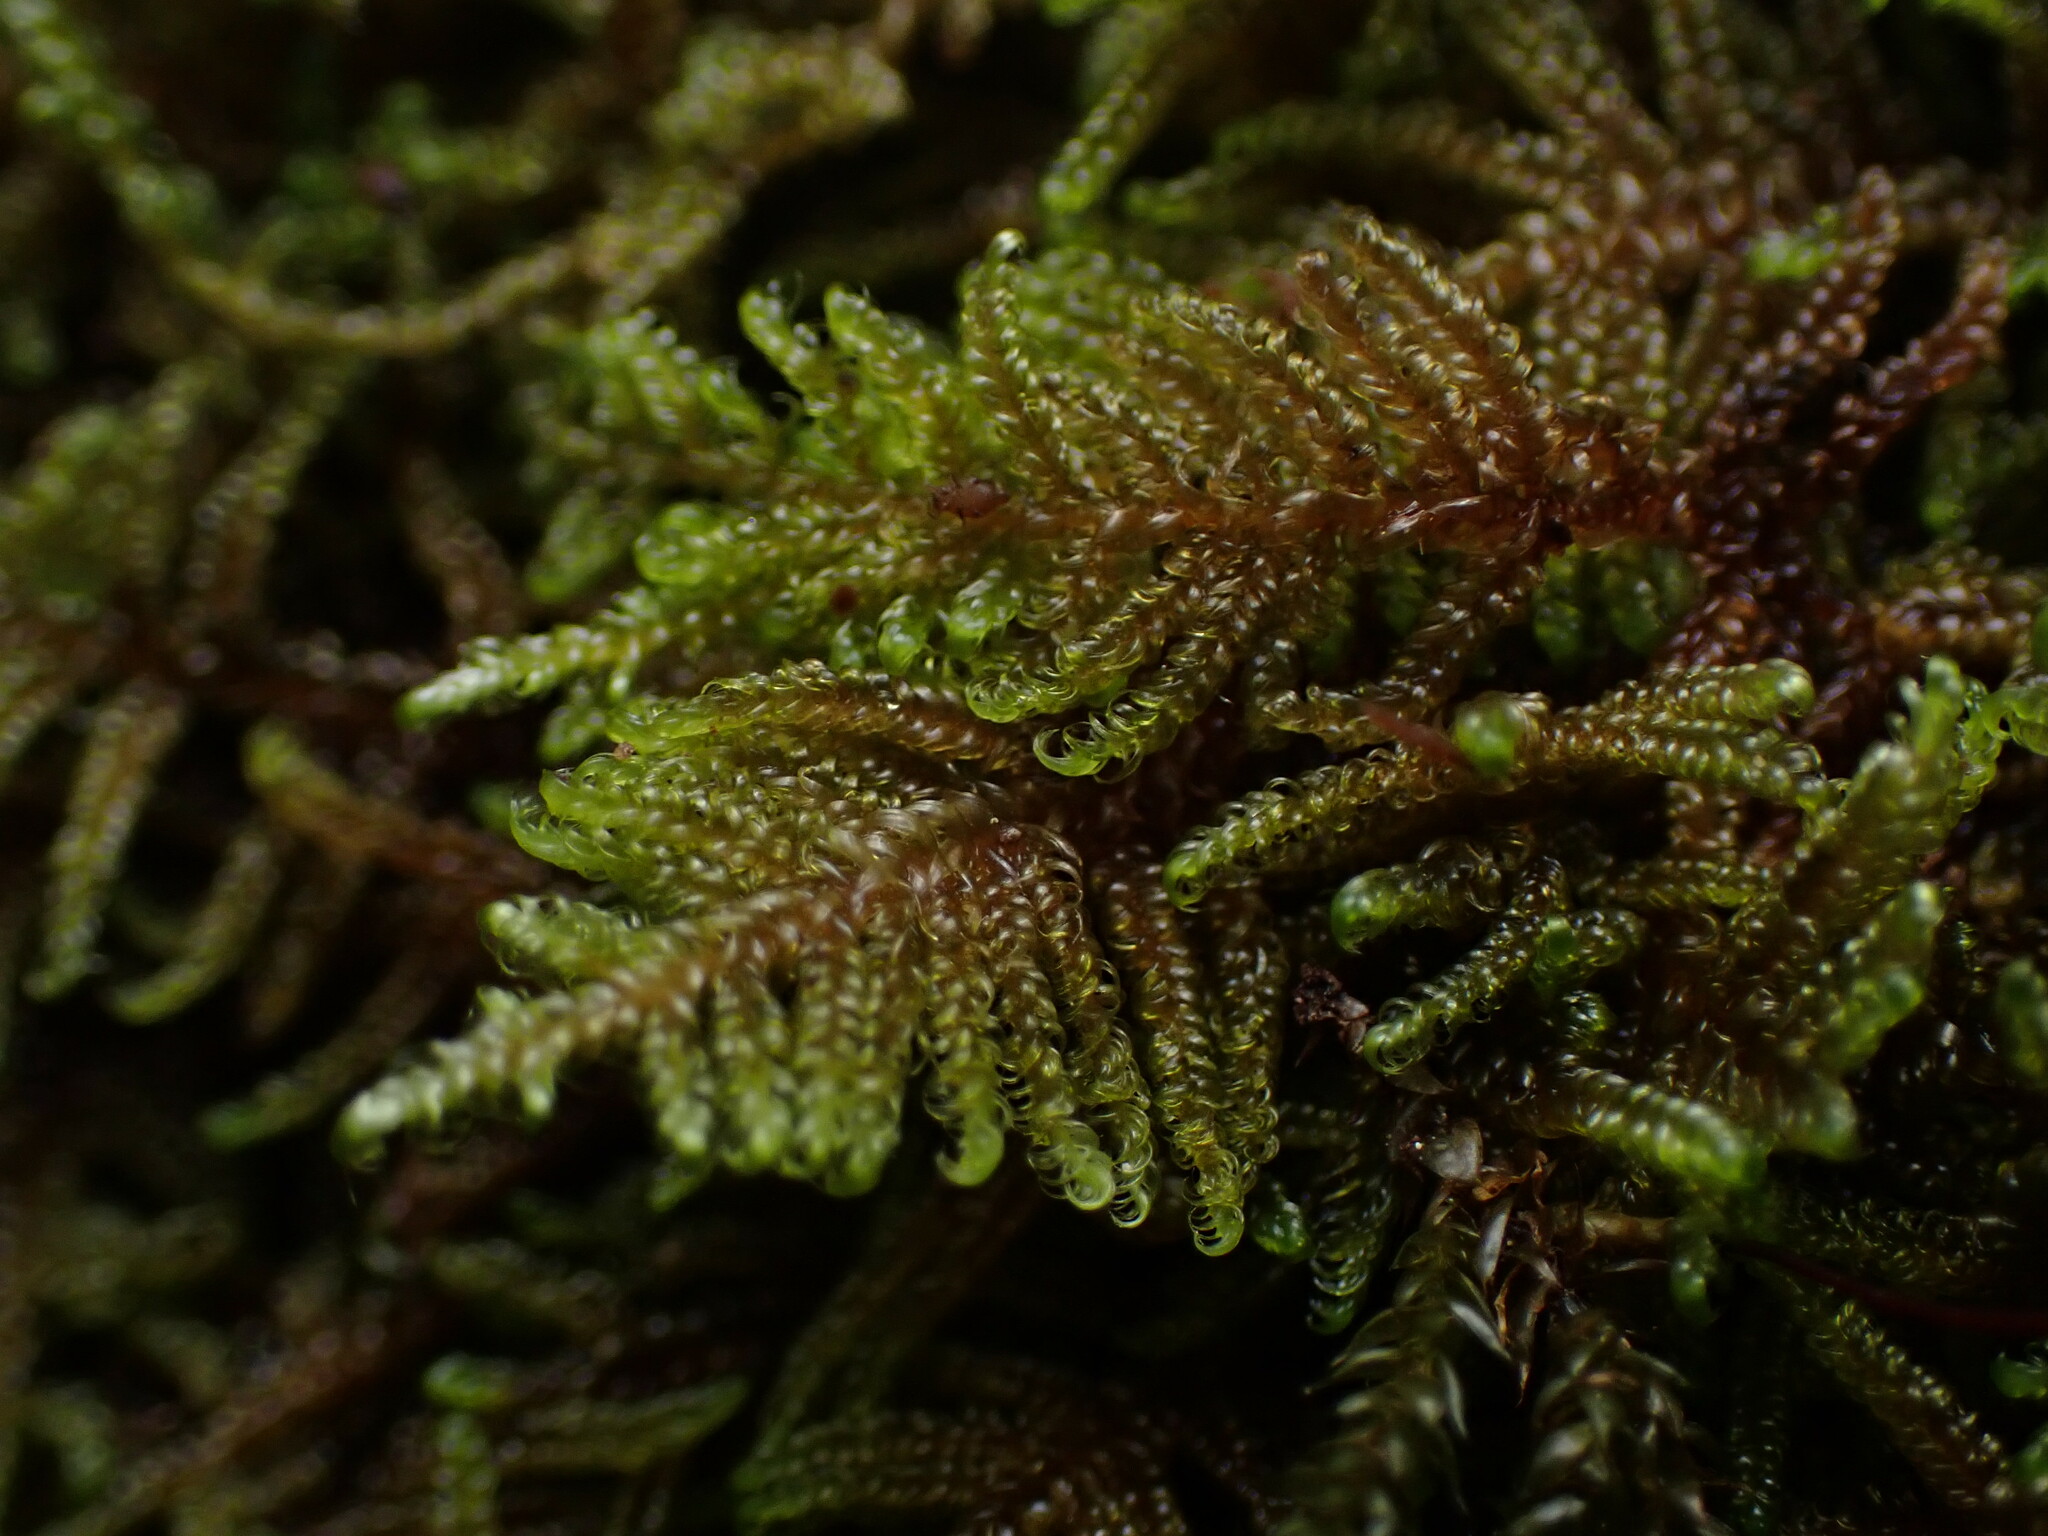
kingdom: Plantae
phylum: Bryophyta
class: Bryopsida
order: Hypnales
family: Pylaisiaceae
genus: Calliergonellopsis
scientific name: Calliergonellopsis dieckii
